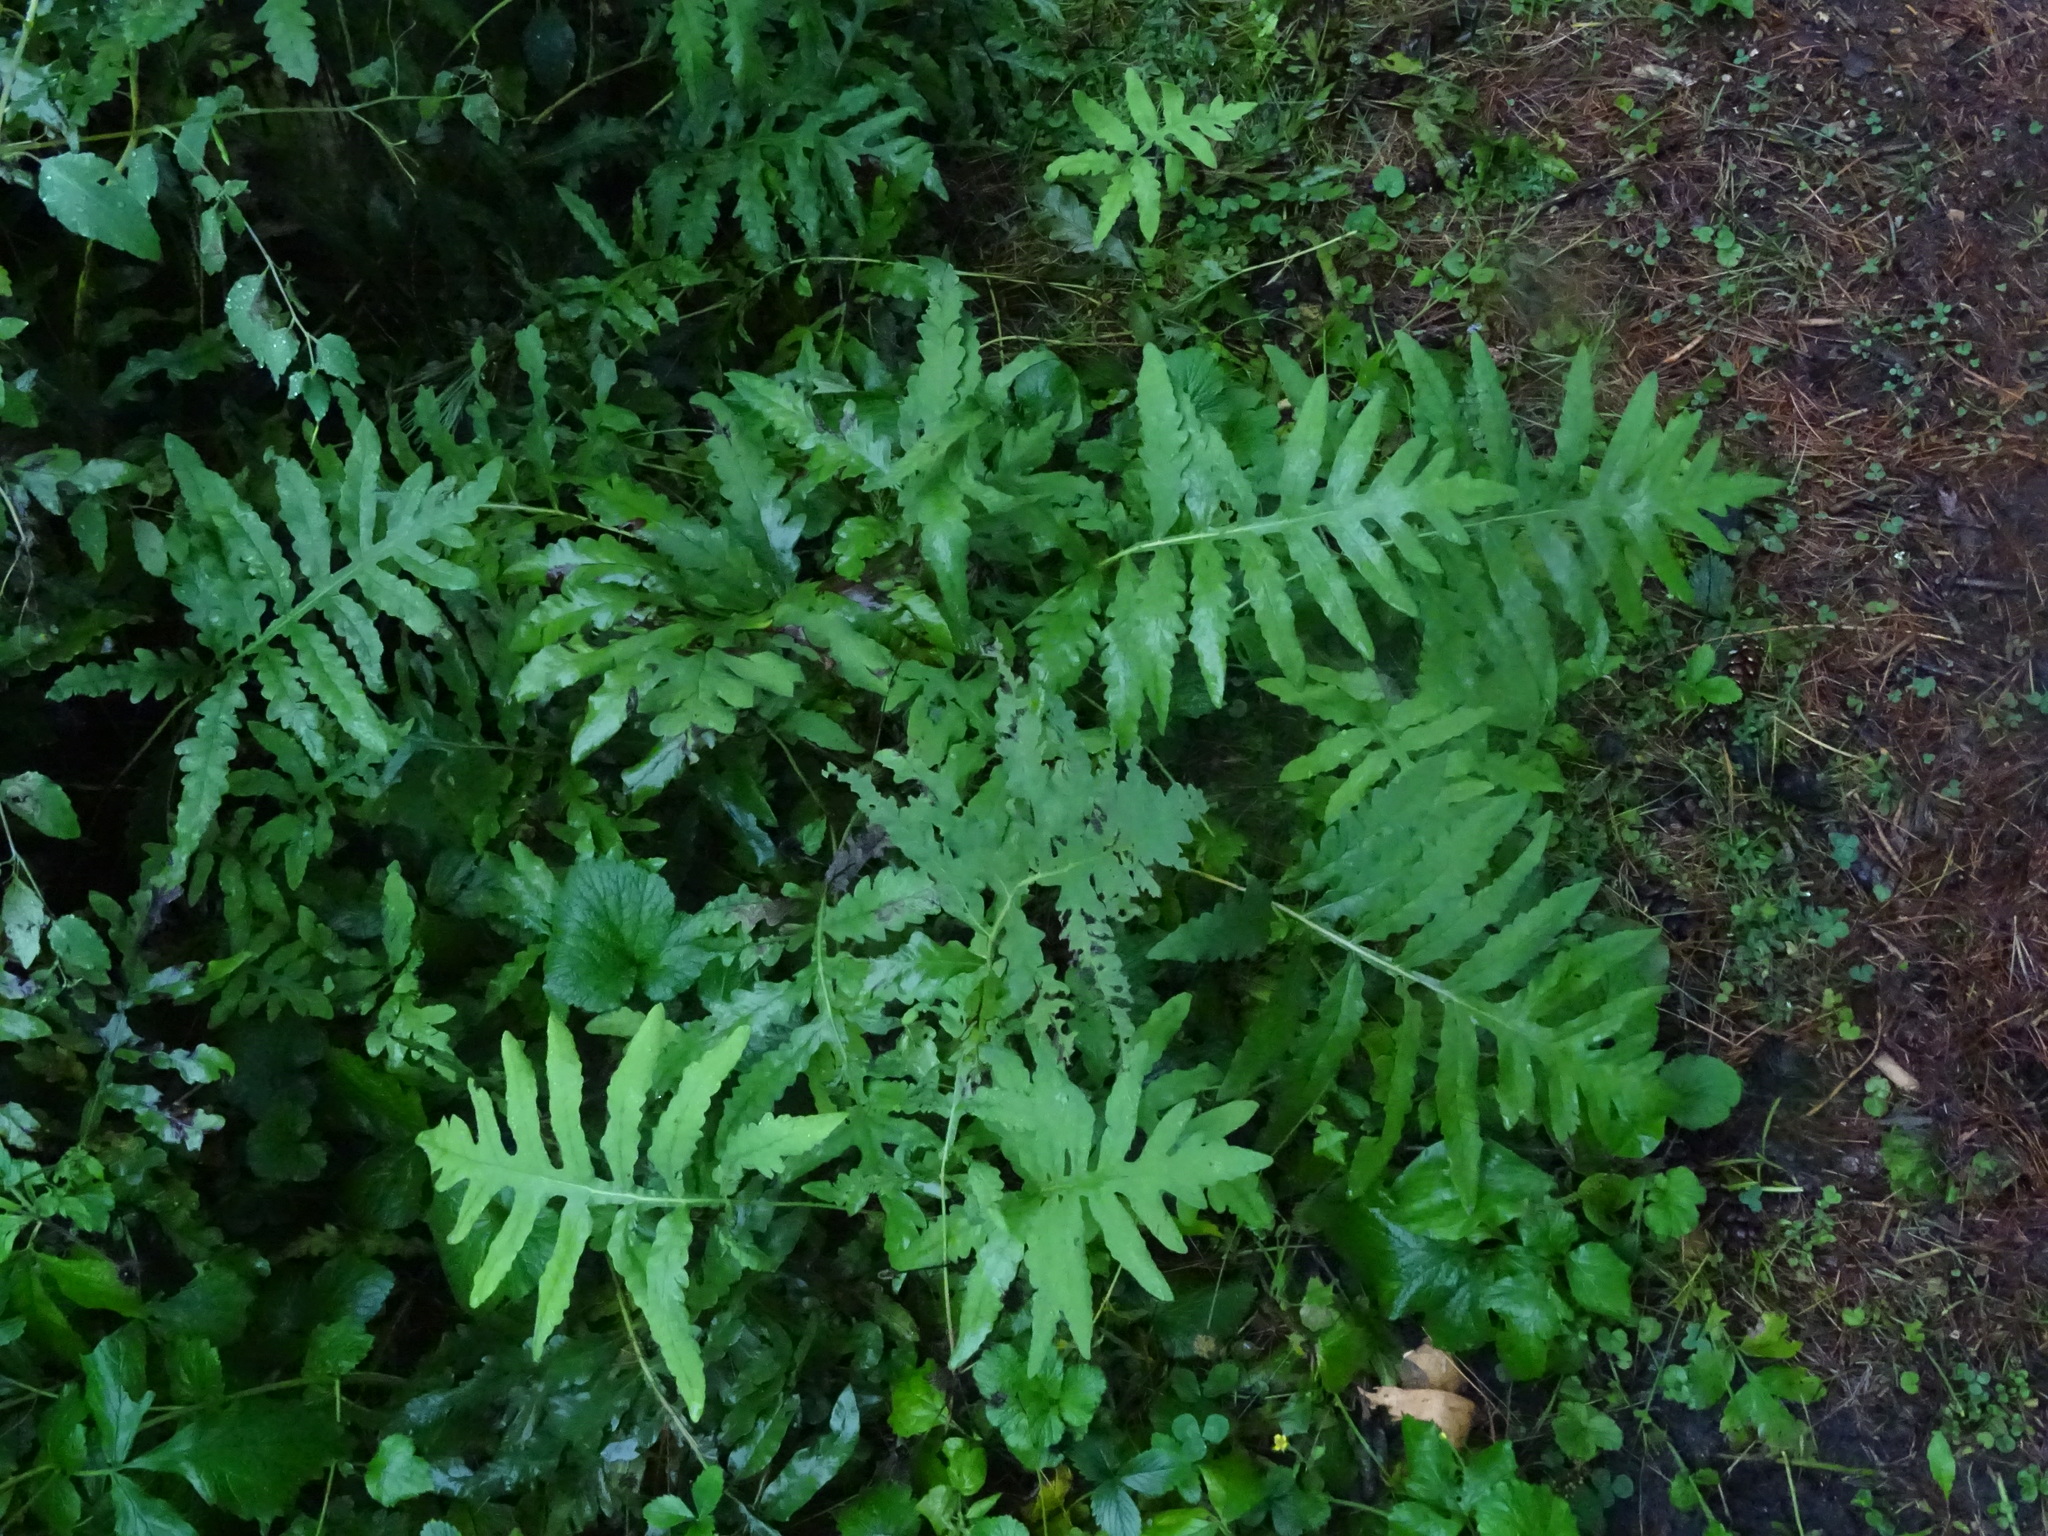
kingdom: Plantae
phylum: Tracheophyta
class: Polypodiopsida
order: Polypodiales
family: Onocleaceae
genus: Onoclea
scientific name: Onoclea sensibilis
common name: Sensitive fern
